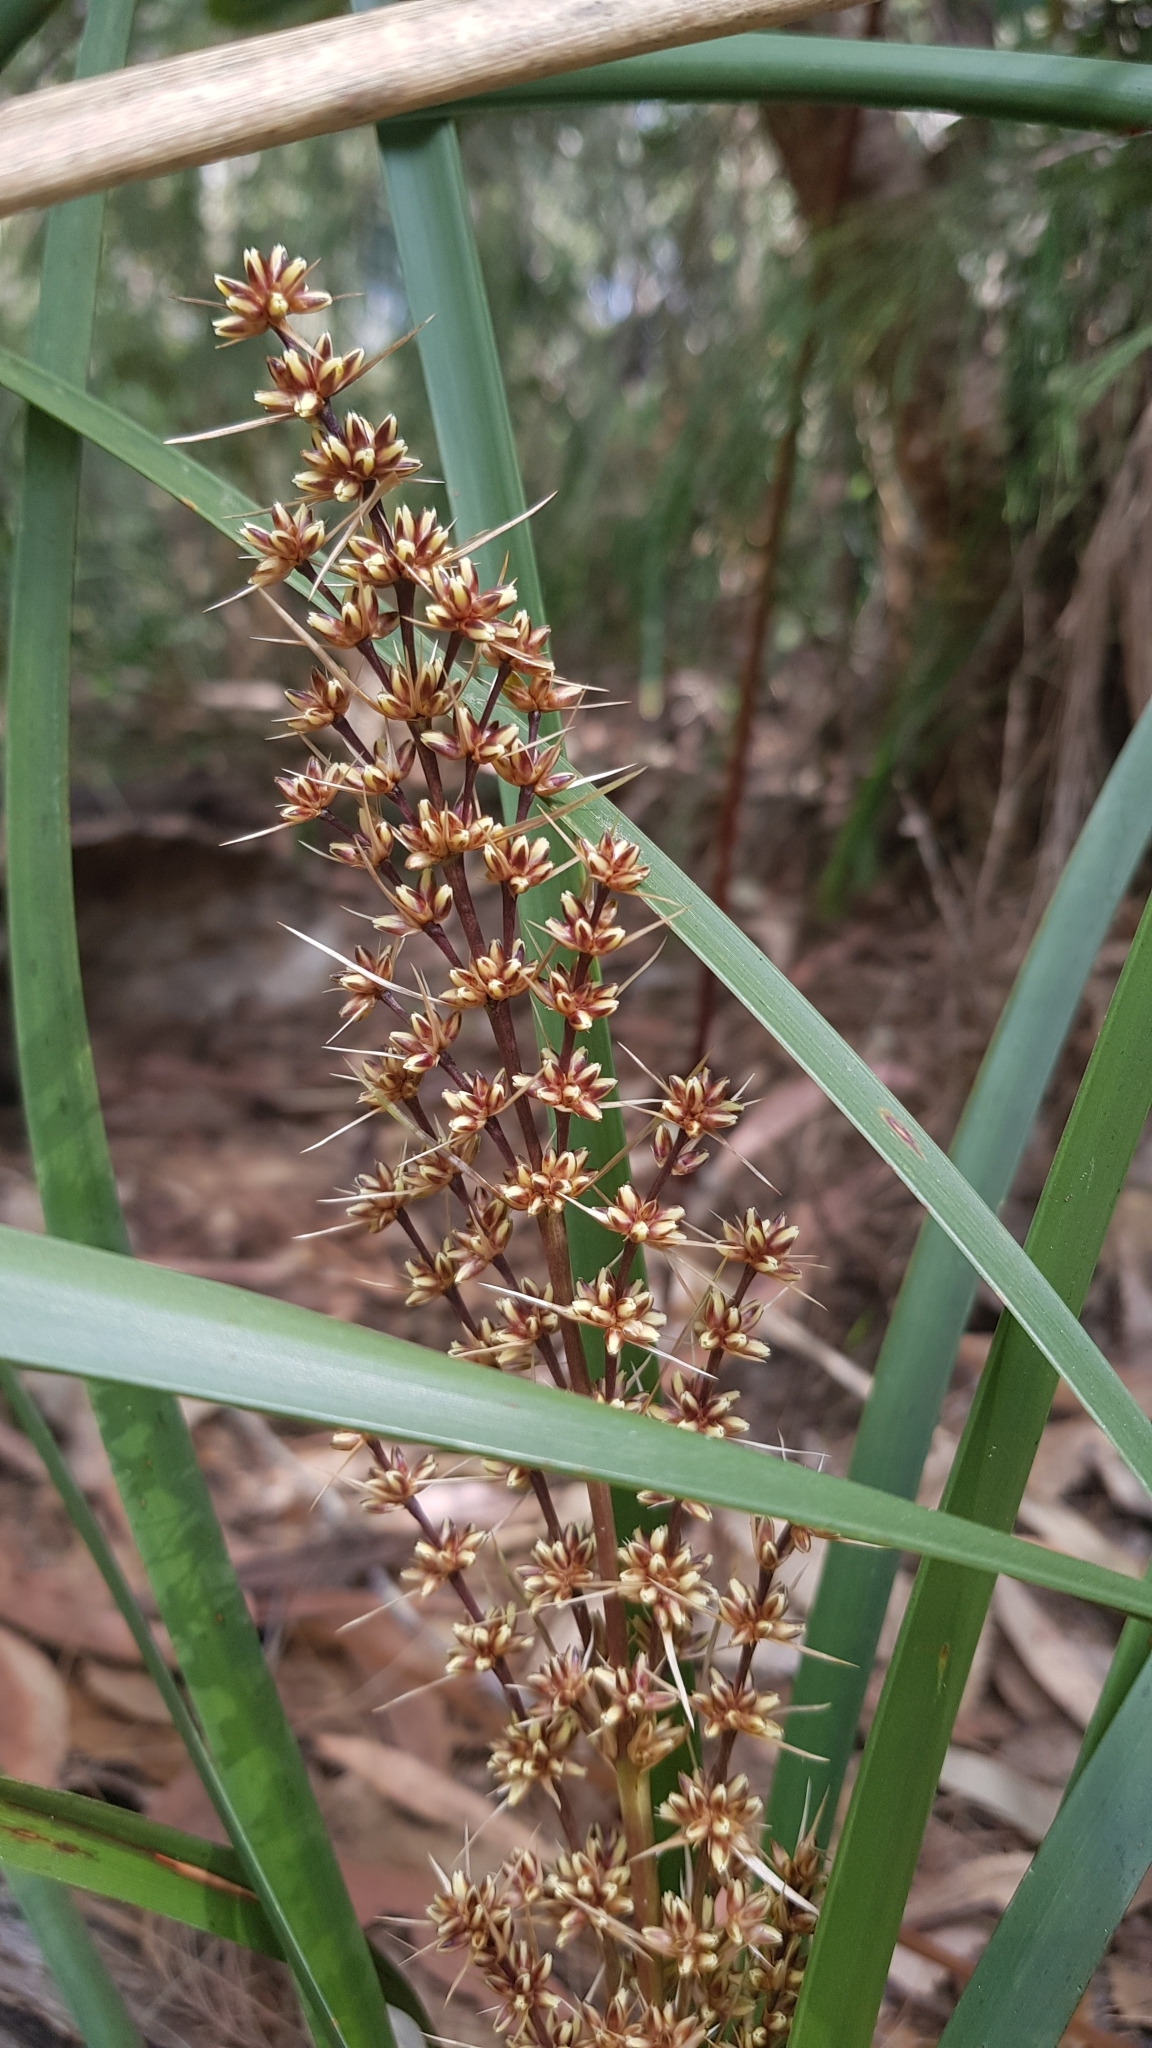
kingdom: Plantae
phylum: Tracheophyta
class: Liliopsida
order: Asparagales
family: Asparagaceae
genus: Lomandra
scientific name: Lomandra longifolia
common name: Longleaf mat-rush
